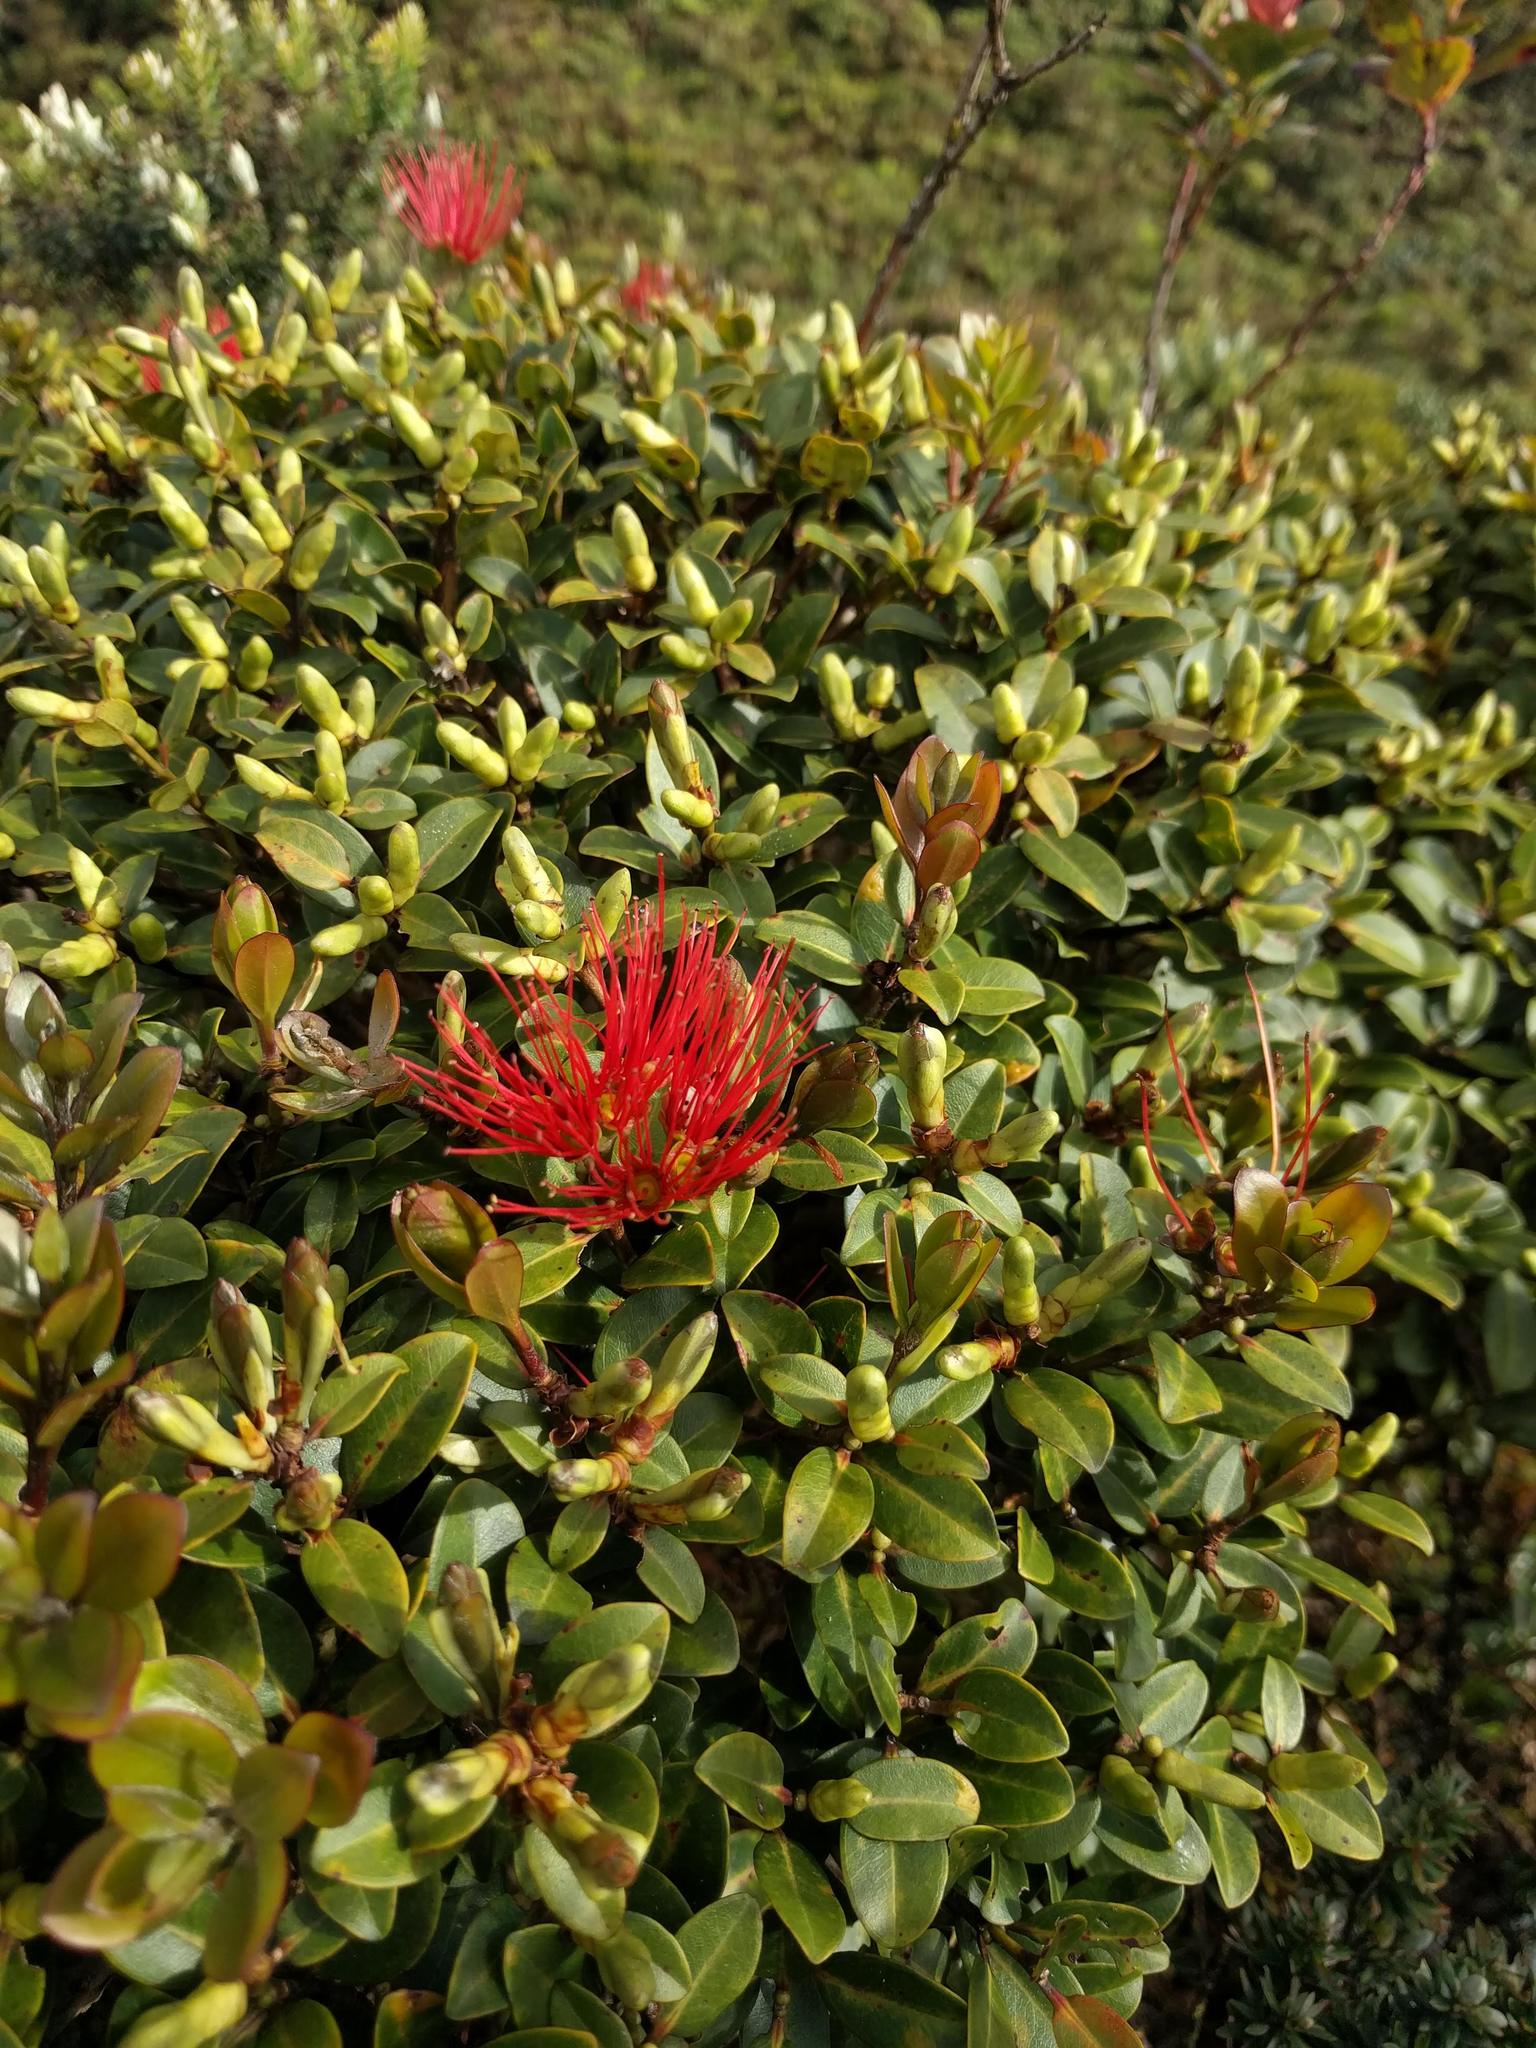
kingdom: Plantae
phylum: Tracheophyta
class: Magnoliopsida
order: Myrtales
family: Myrtaceae
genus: Metrosideros
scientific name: Metrosideros polymorpha
